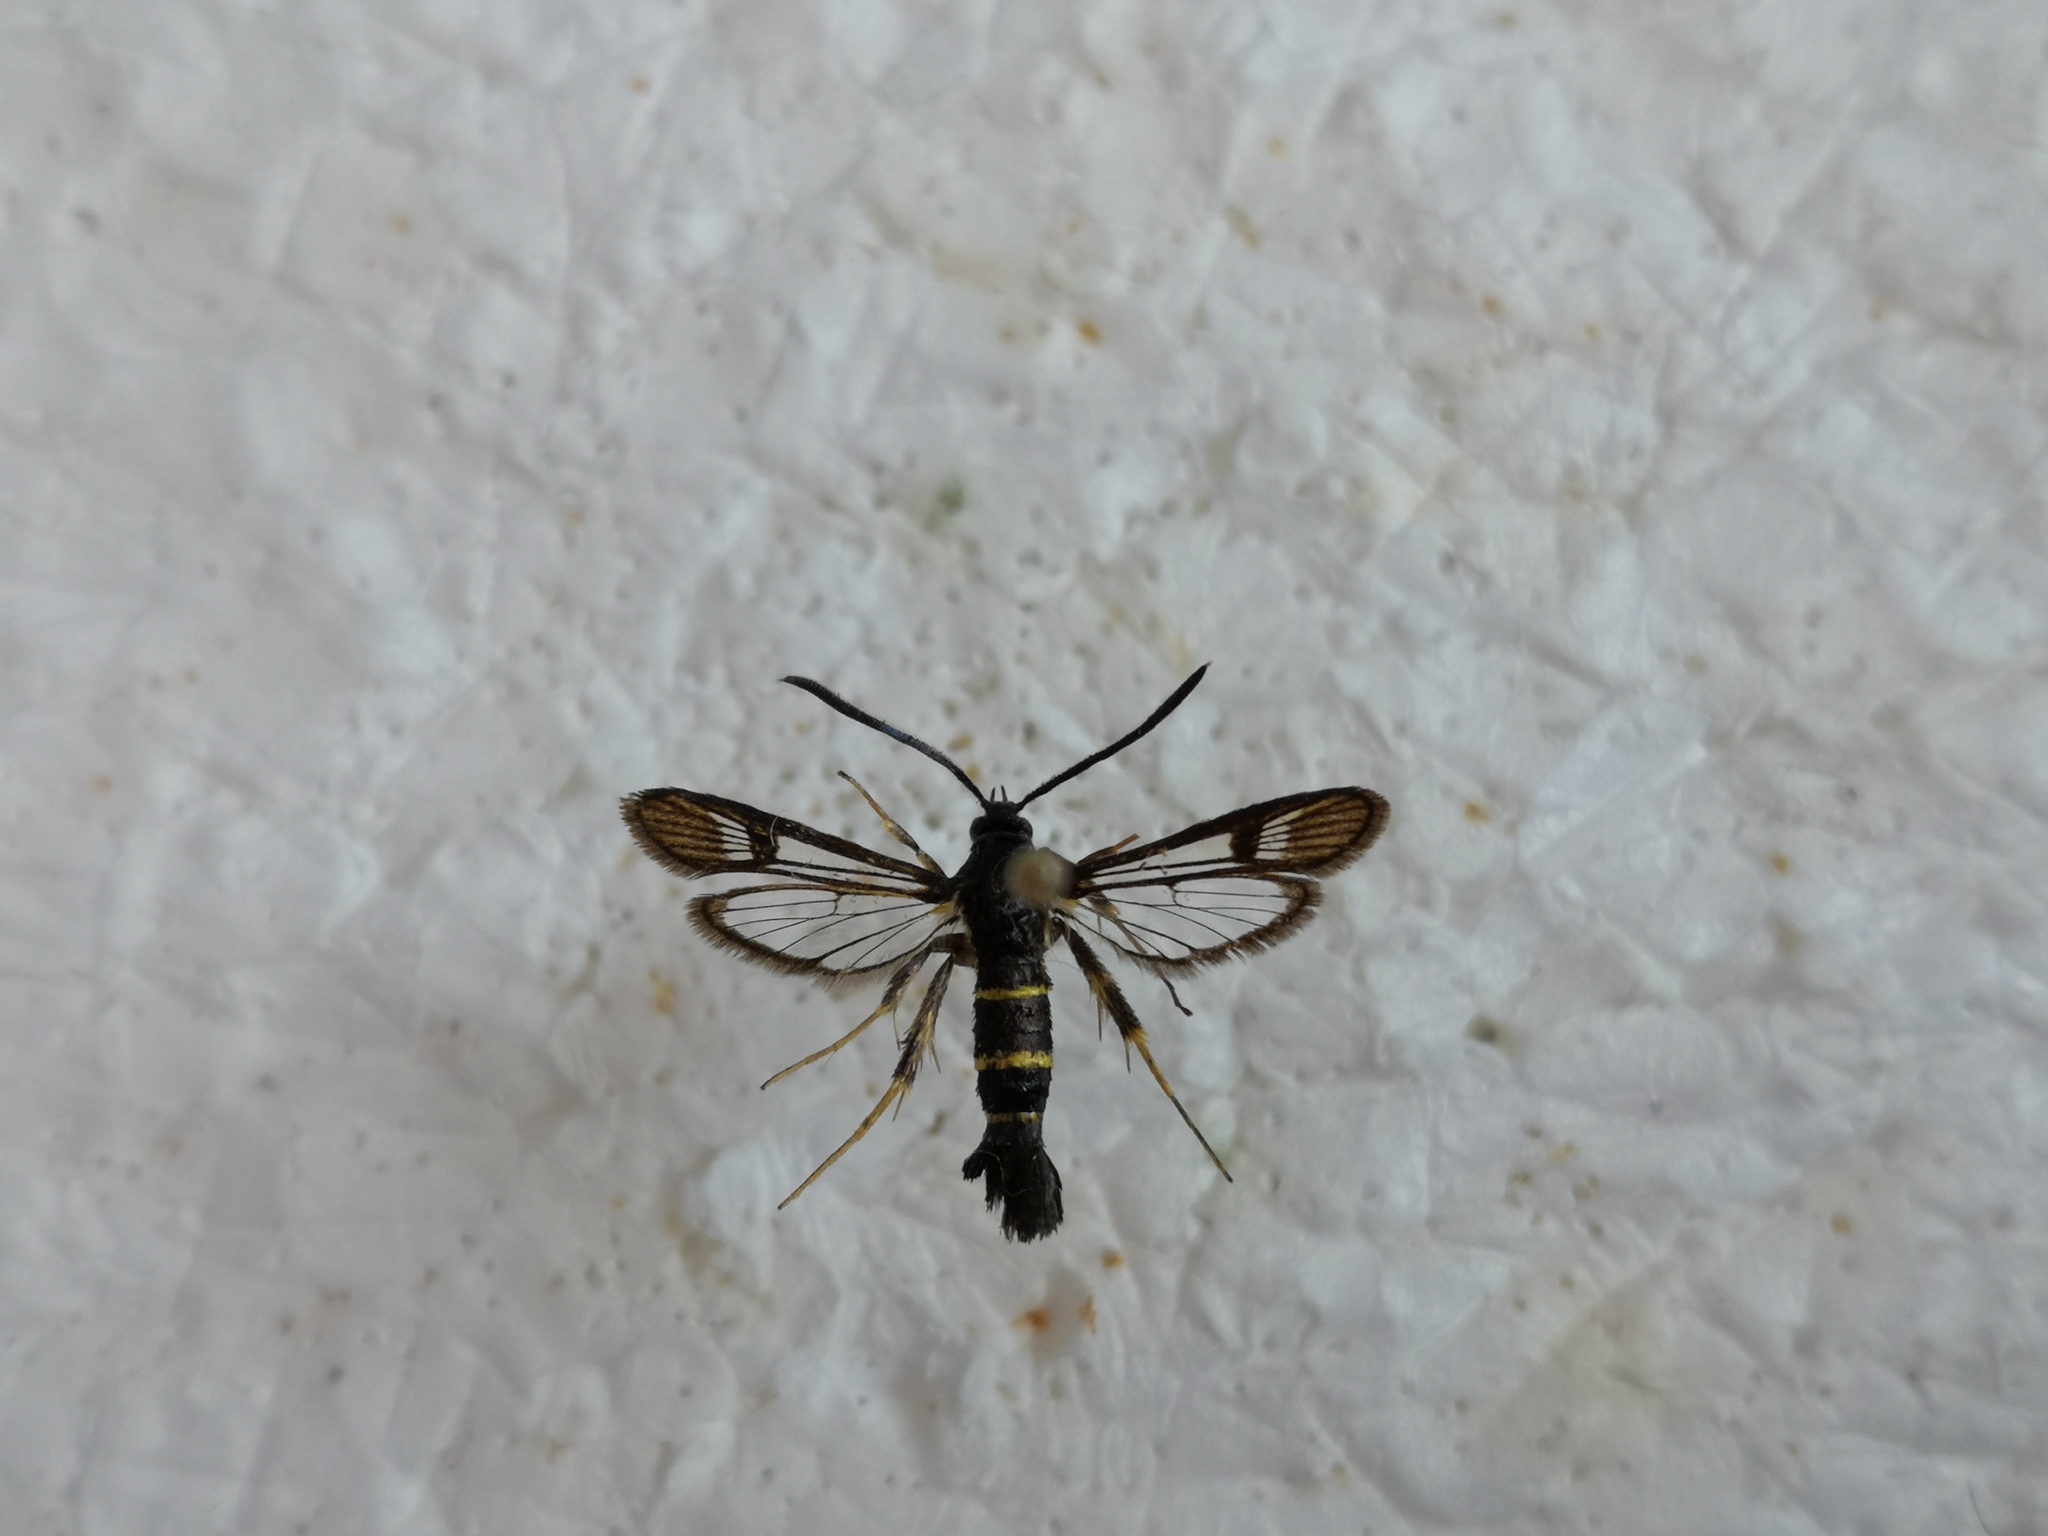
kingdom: Animalia
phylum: Arthropoda
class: Insecta
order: Lepidoptera
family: Sesiidae
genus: Synanthedon
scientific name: Synanthedon flaviventris
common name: Sallow clearwing
